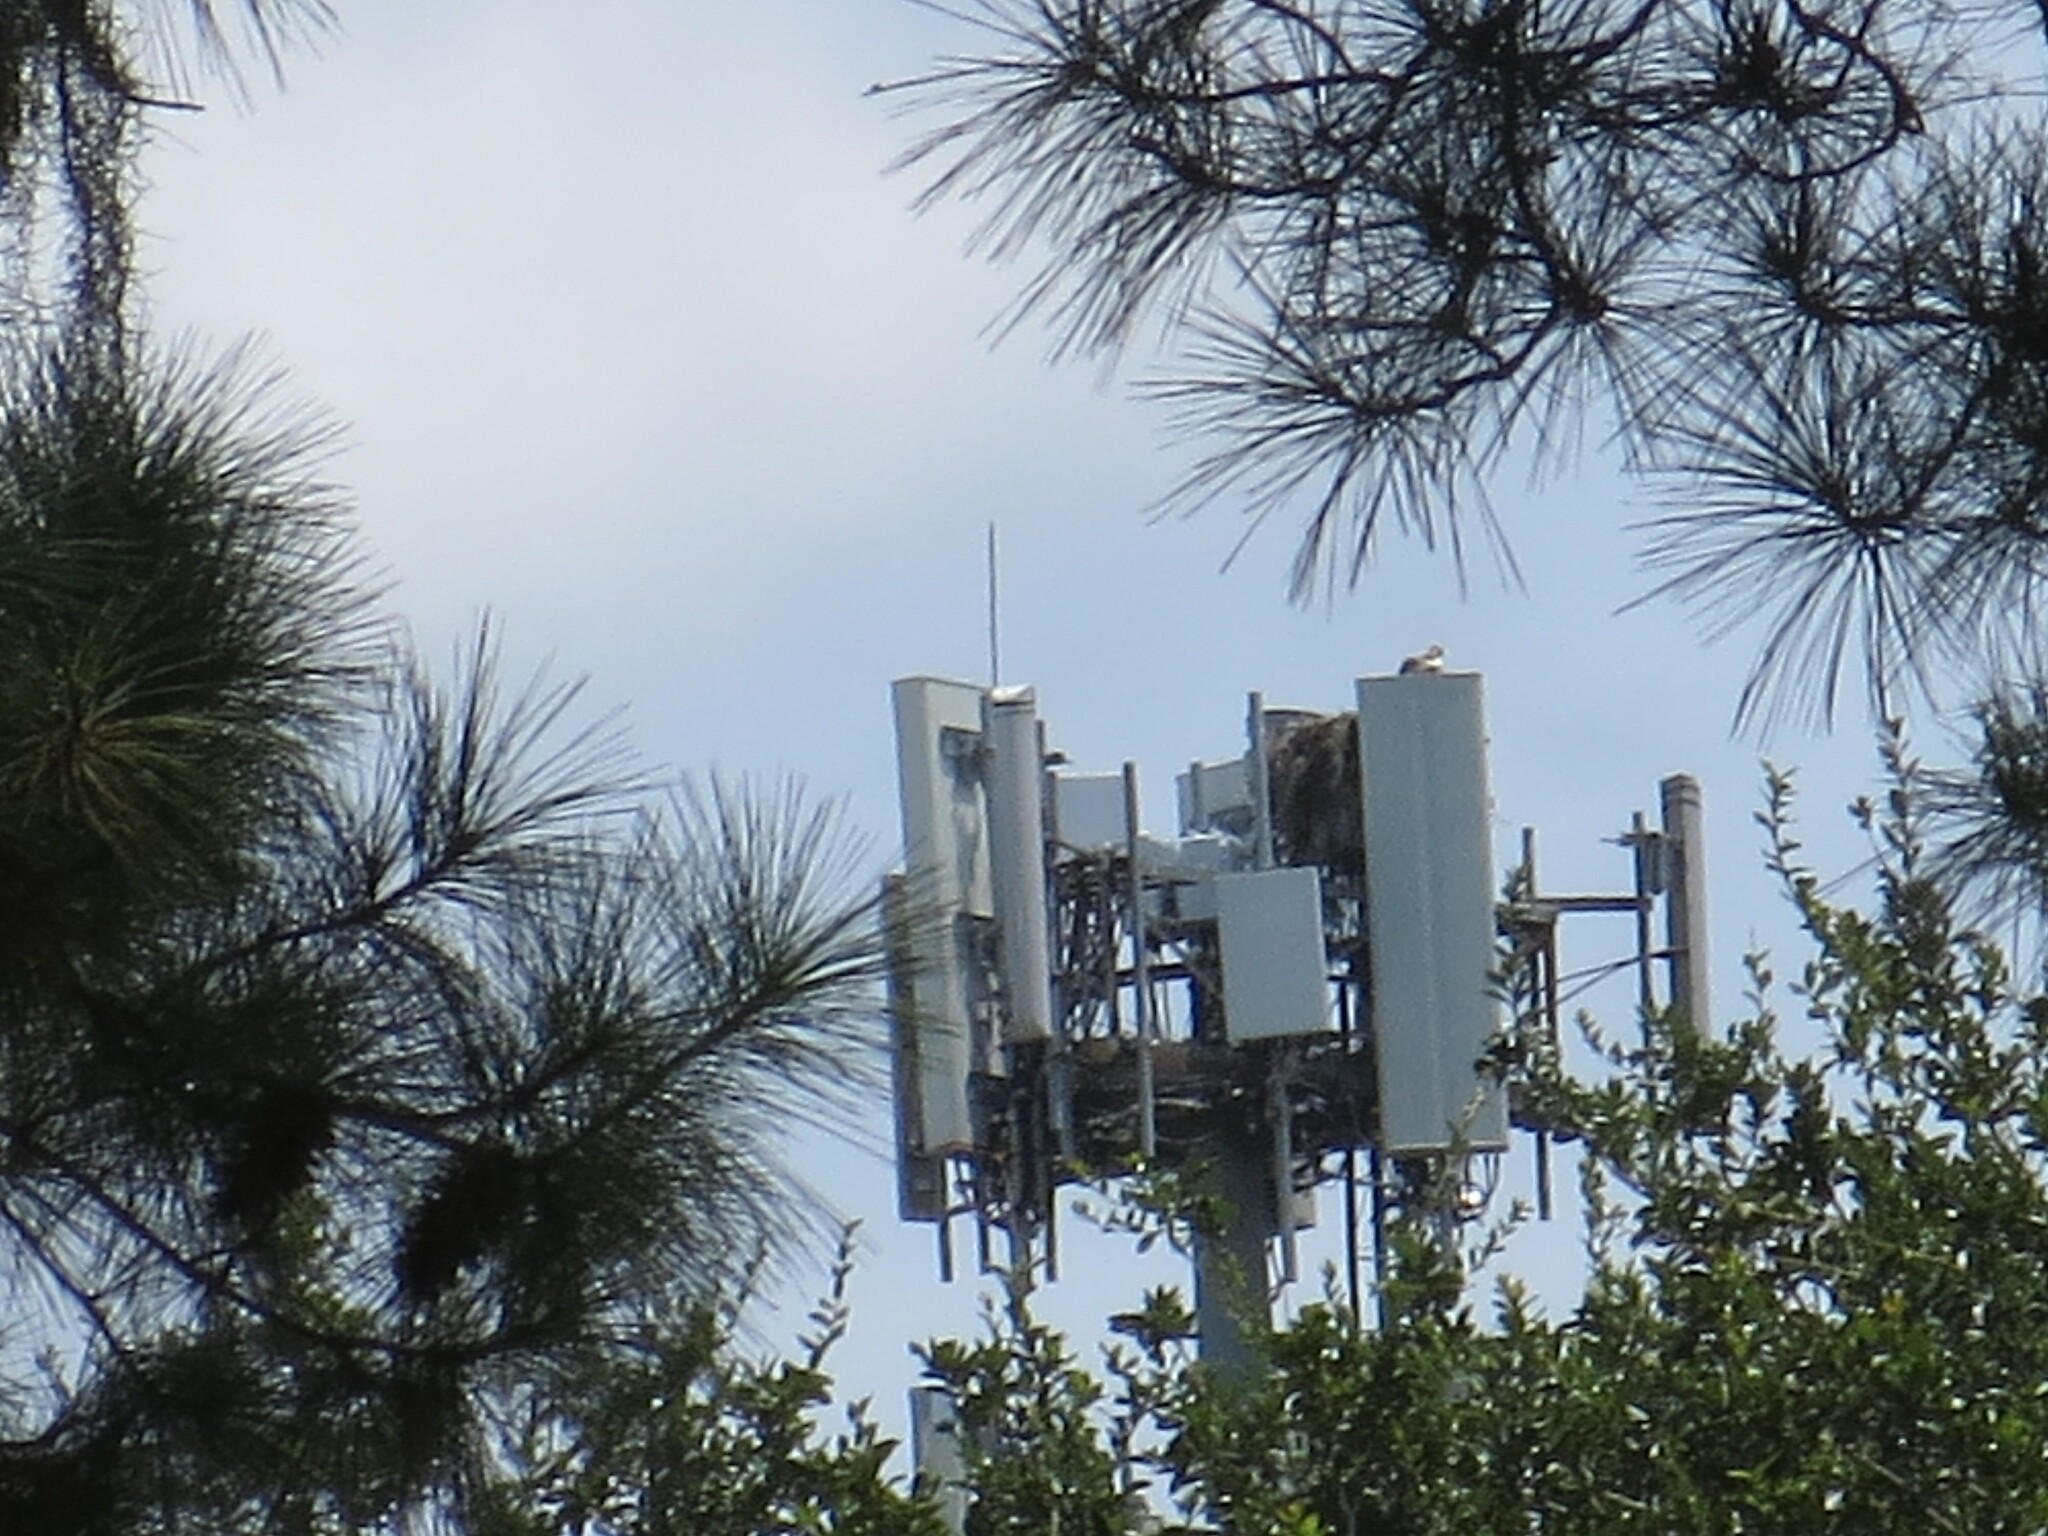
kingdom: Animalia
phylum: Chordata
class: Aves
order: Accipitriformes
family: Pandionidae
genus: Pandion
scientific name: Pandion haliaetus
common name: Osprey
